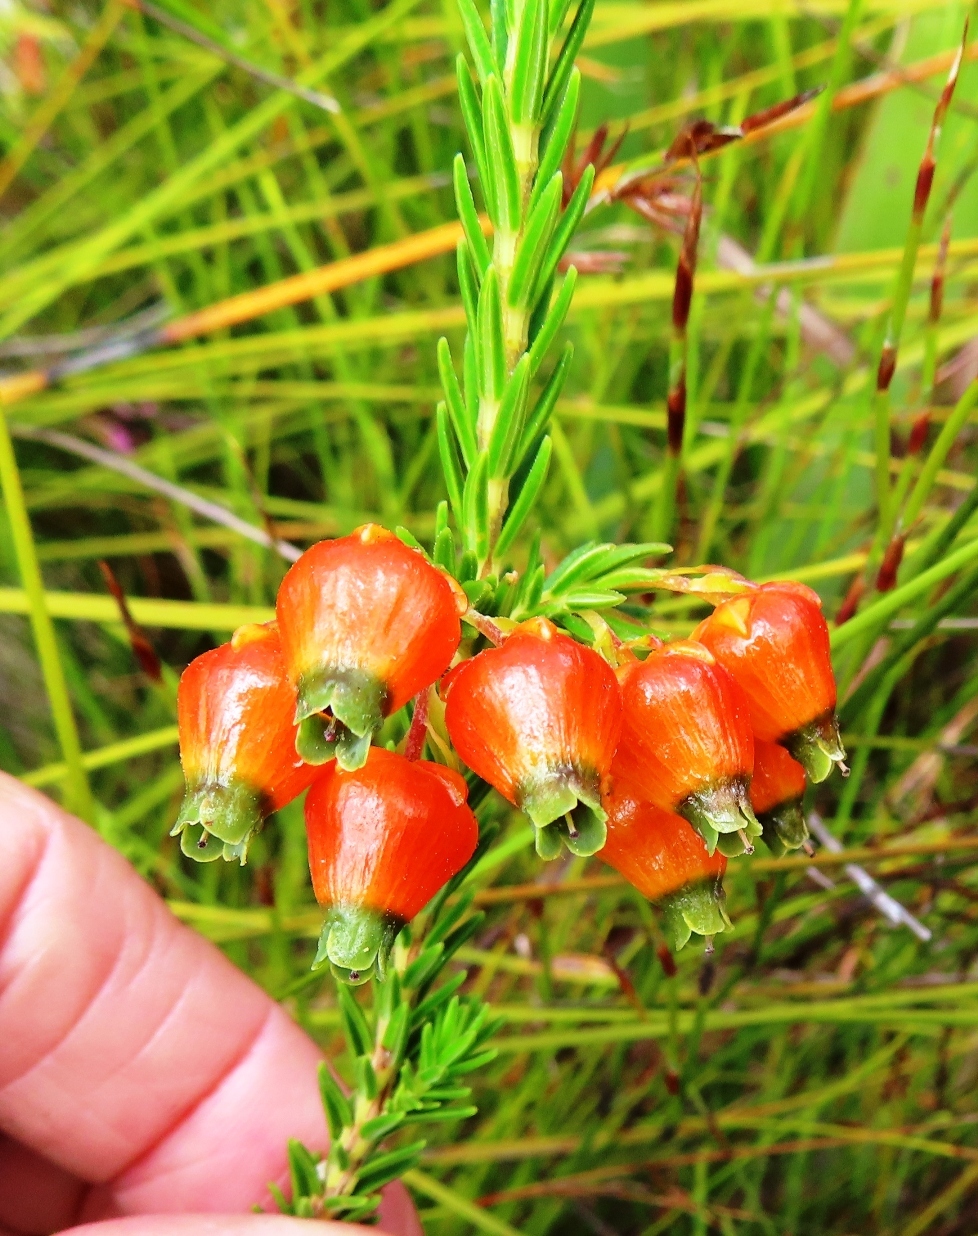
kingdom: Plantae
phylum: Tracheophyta
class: Magnoliopsida
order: Ericales
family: Ericaceae
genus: Erica
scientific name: Erica blenna
